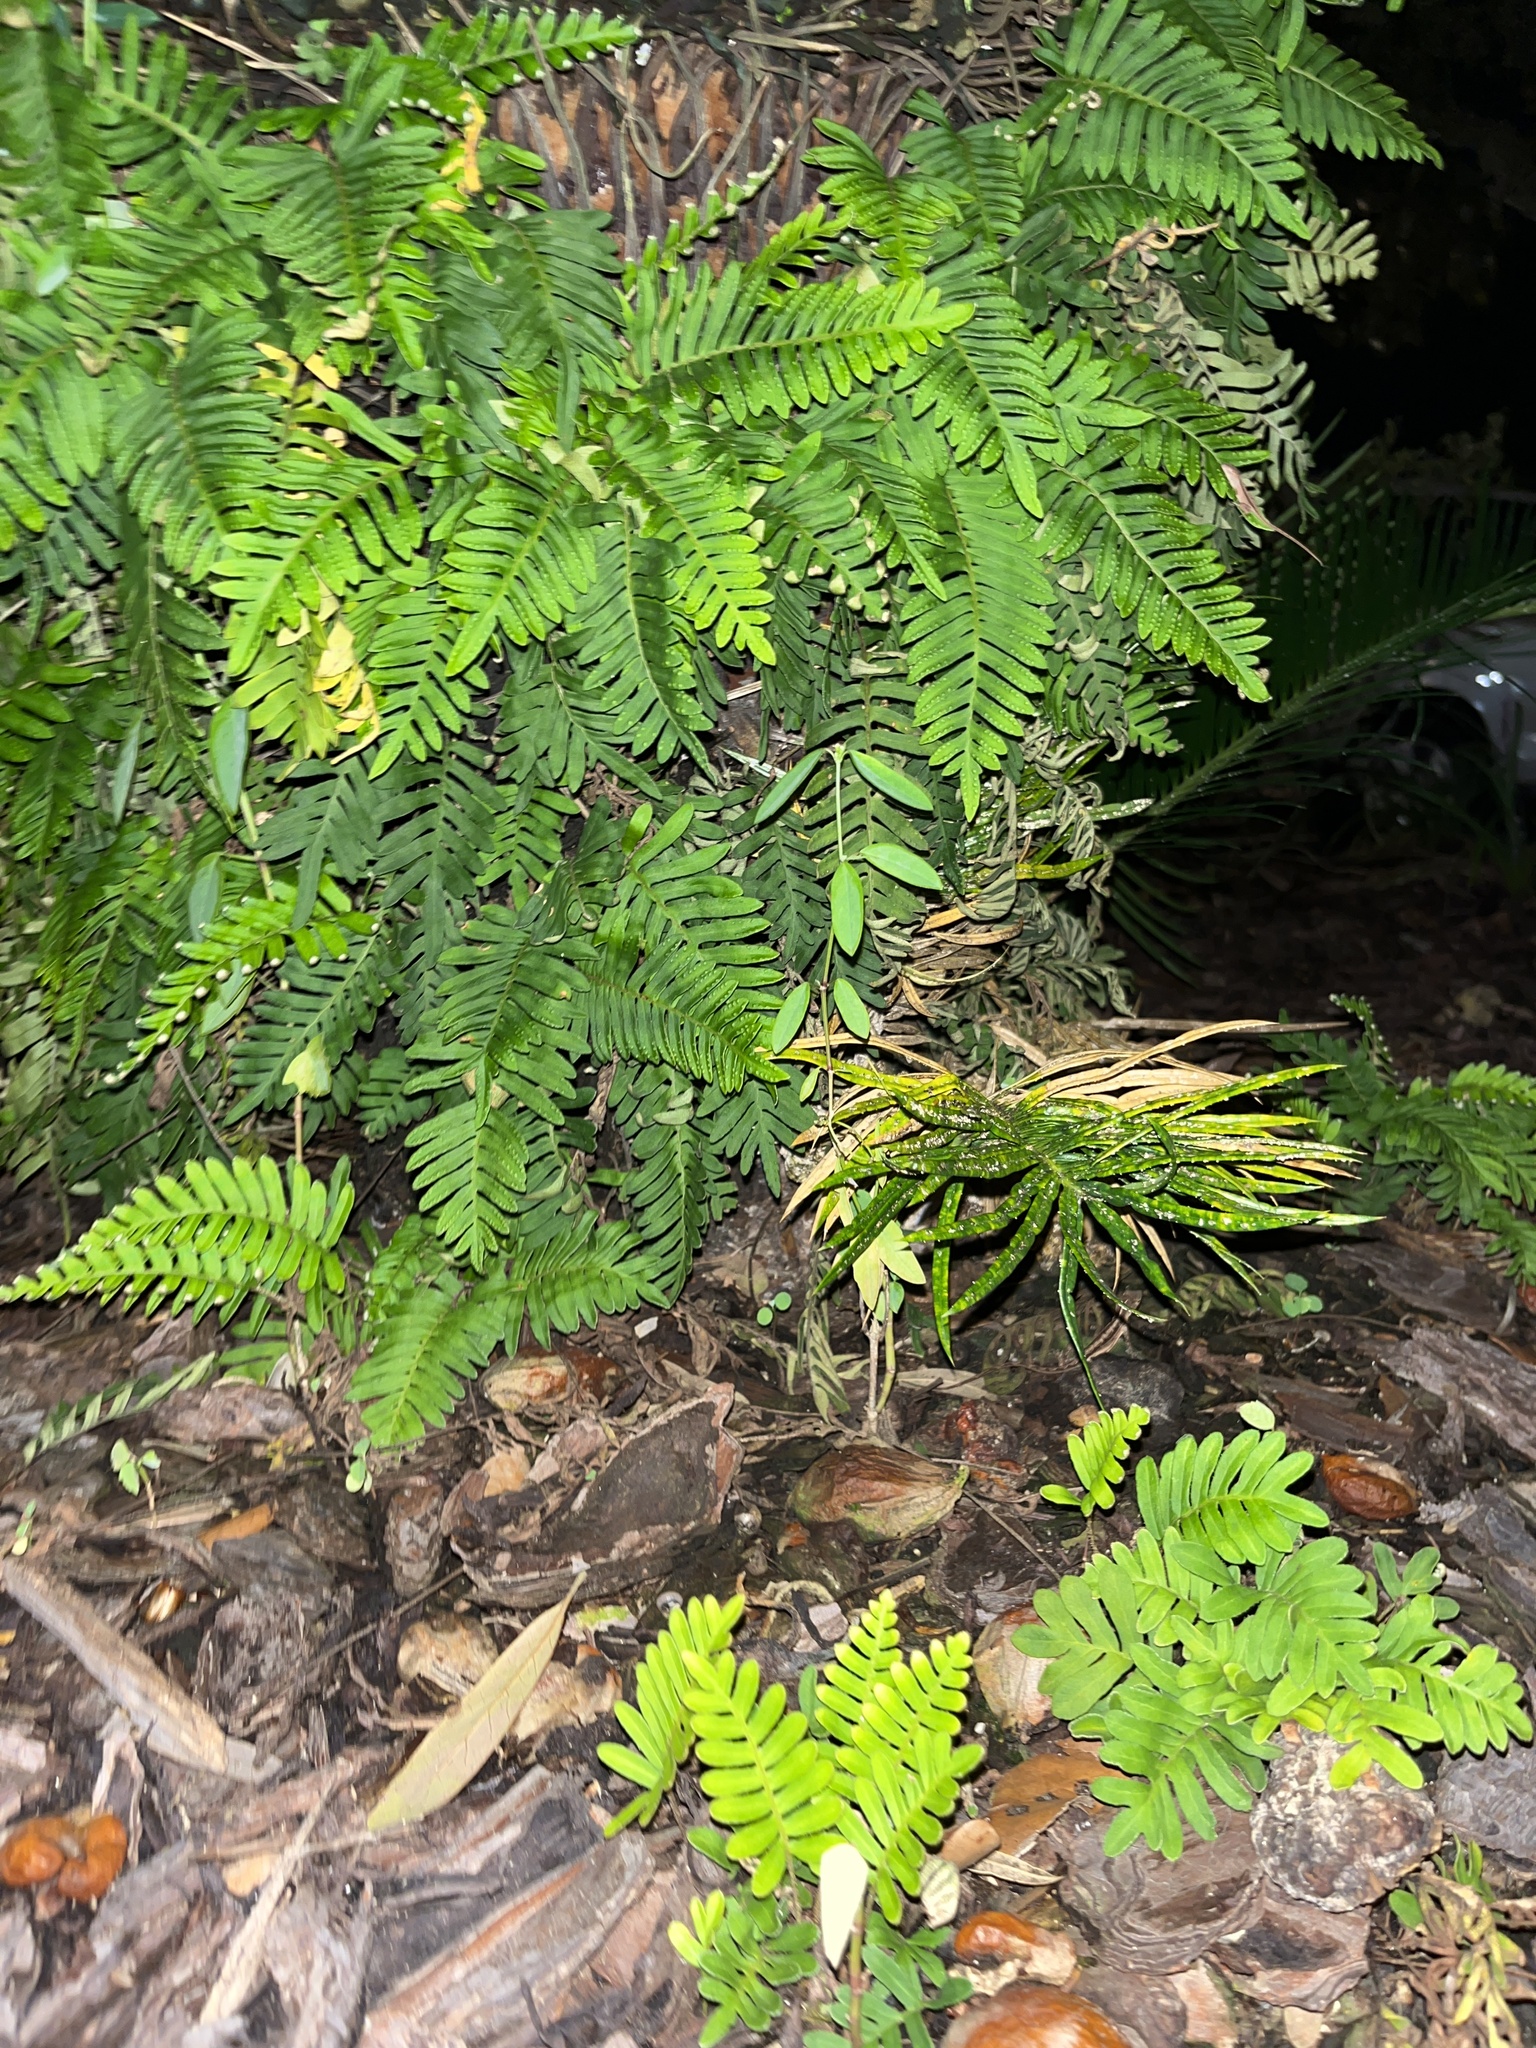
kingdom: Plantae
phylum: Tracheophyta
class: Polypodiopsida
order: Polypodiales
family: Polypodiaceae
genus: Pleopeltis
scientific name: Pleopeltis michauxiana
